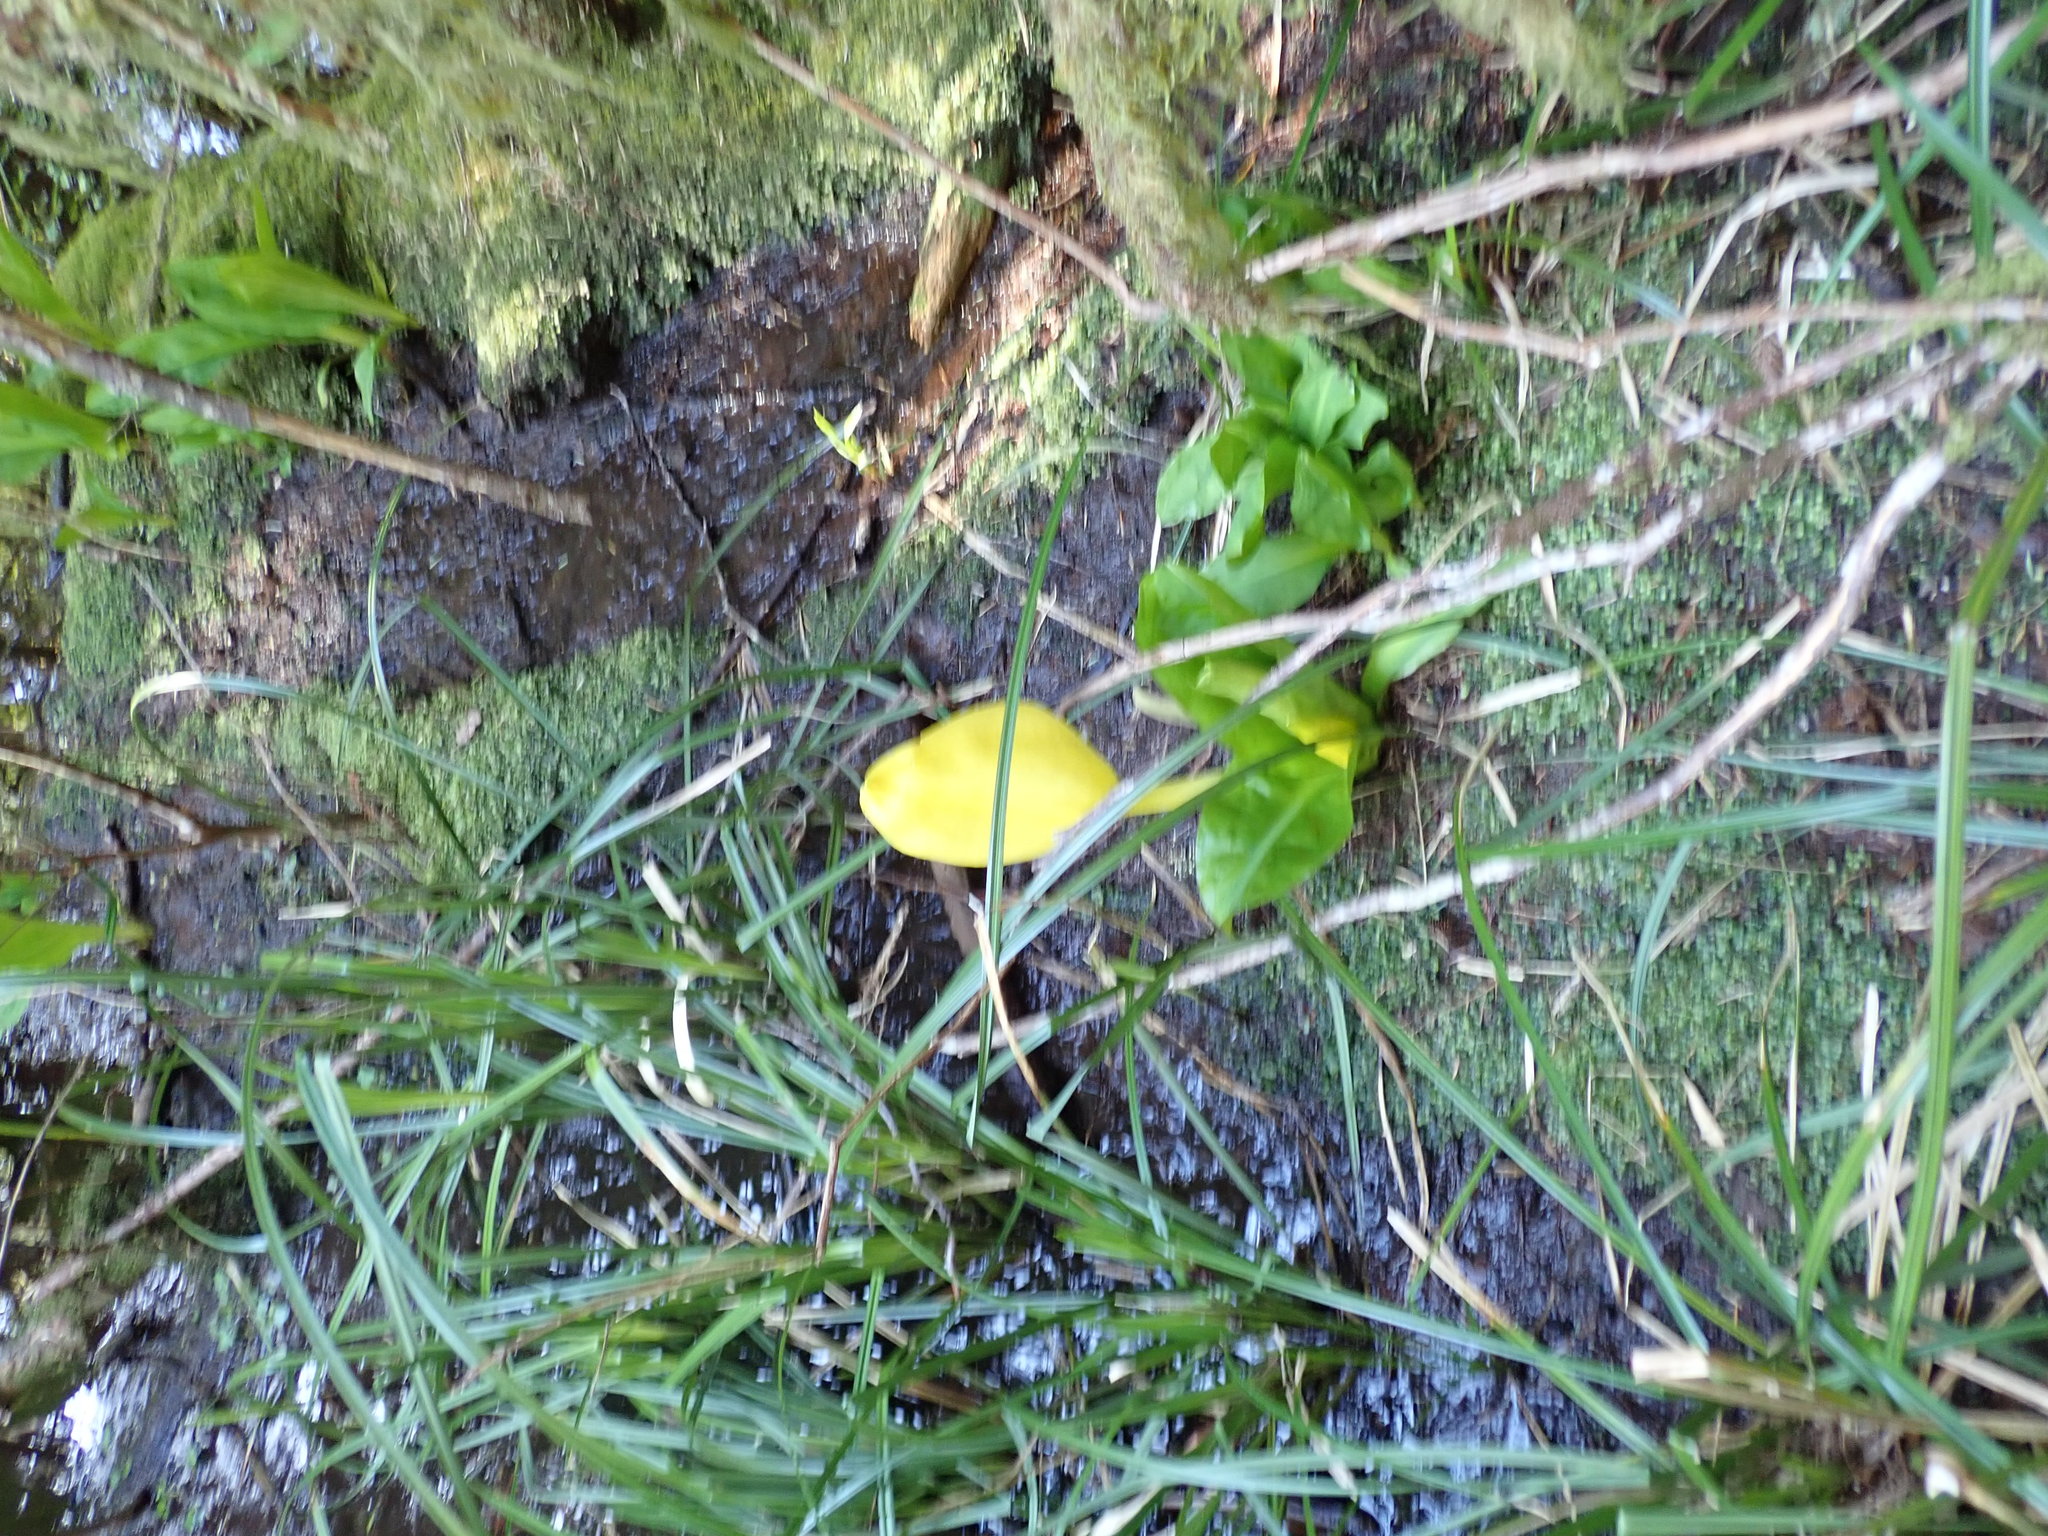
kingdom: Plantae
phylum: Tracheophyta
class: Liliopsida
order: Alismatales
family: Araceae
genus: Lysichiton
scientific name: Lysichiton americanus
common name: American skunk cabbage
